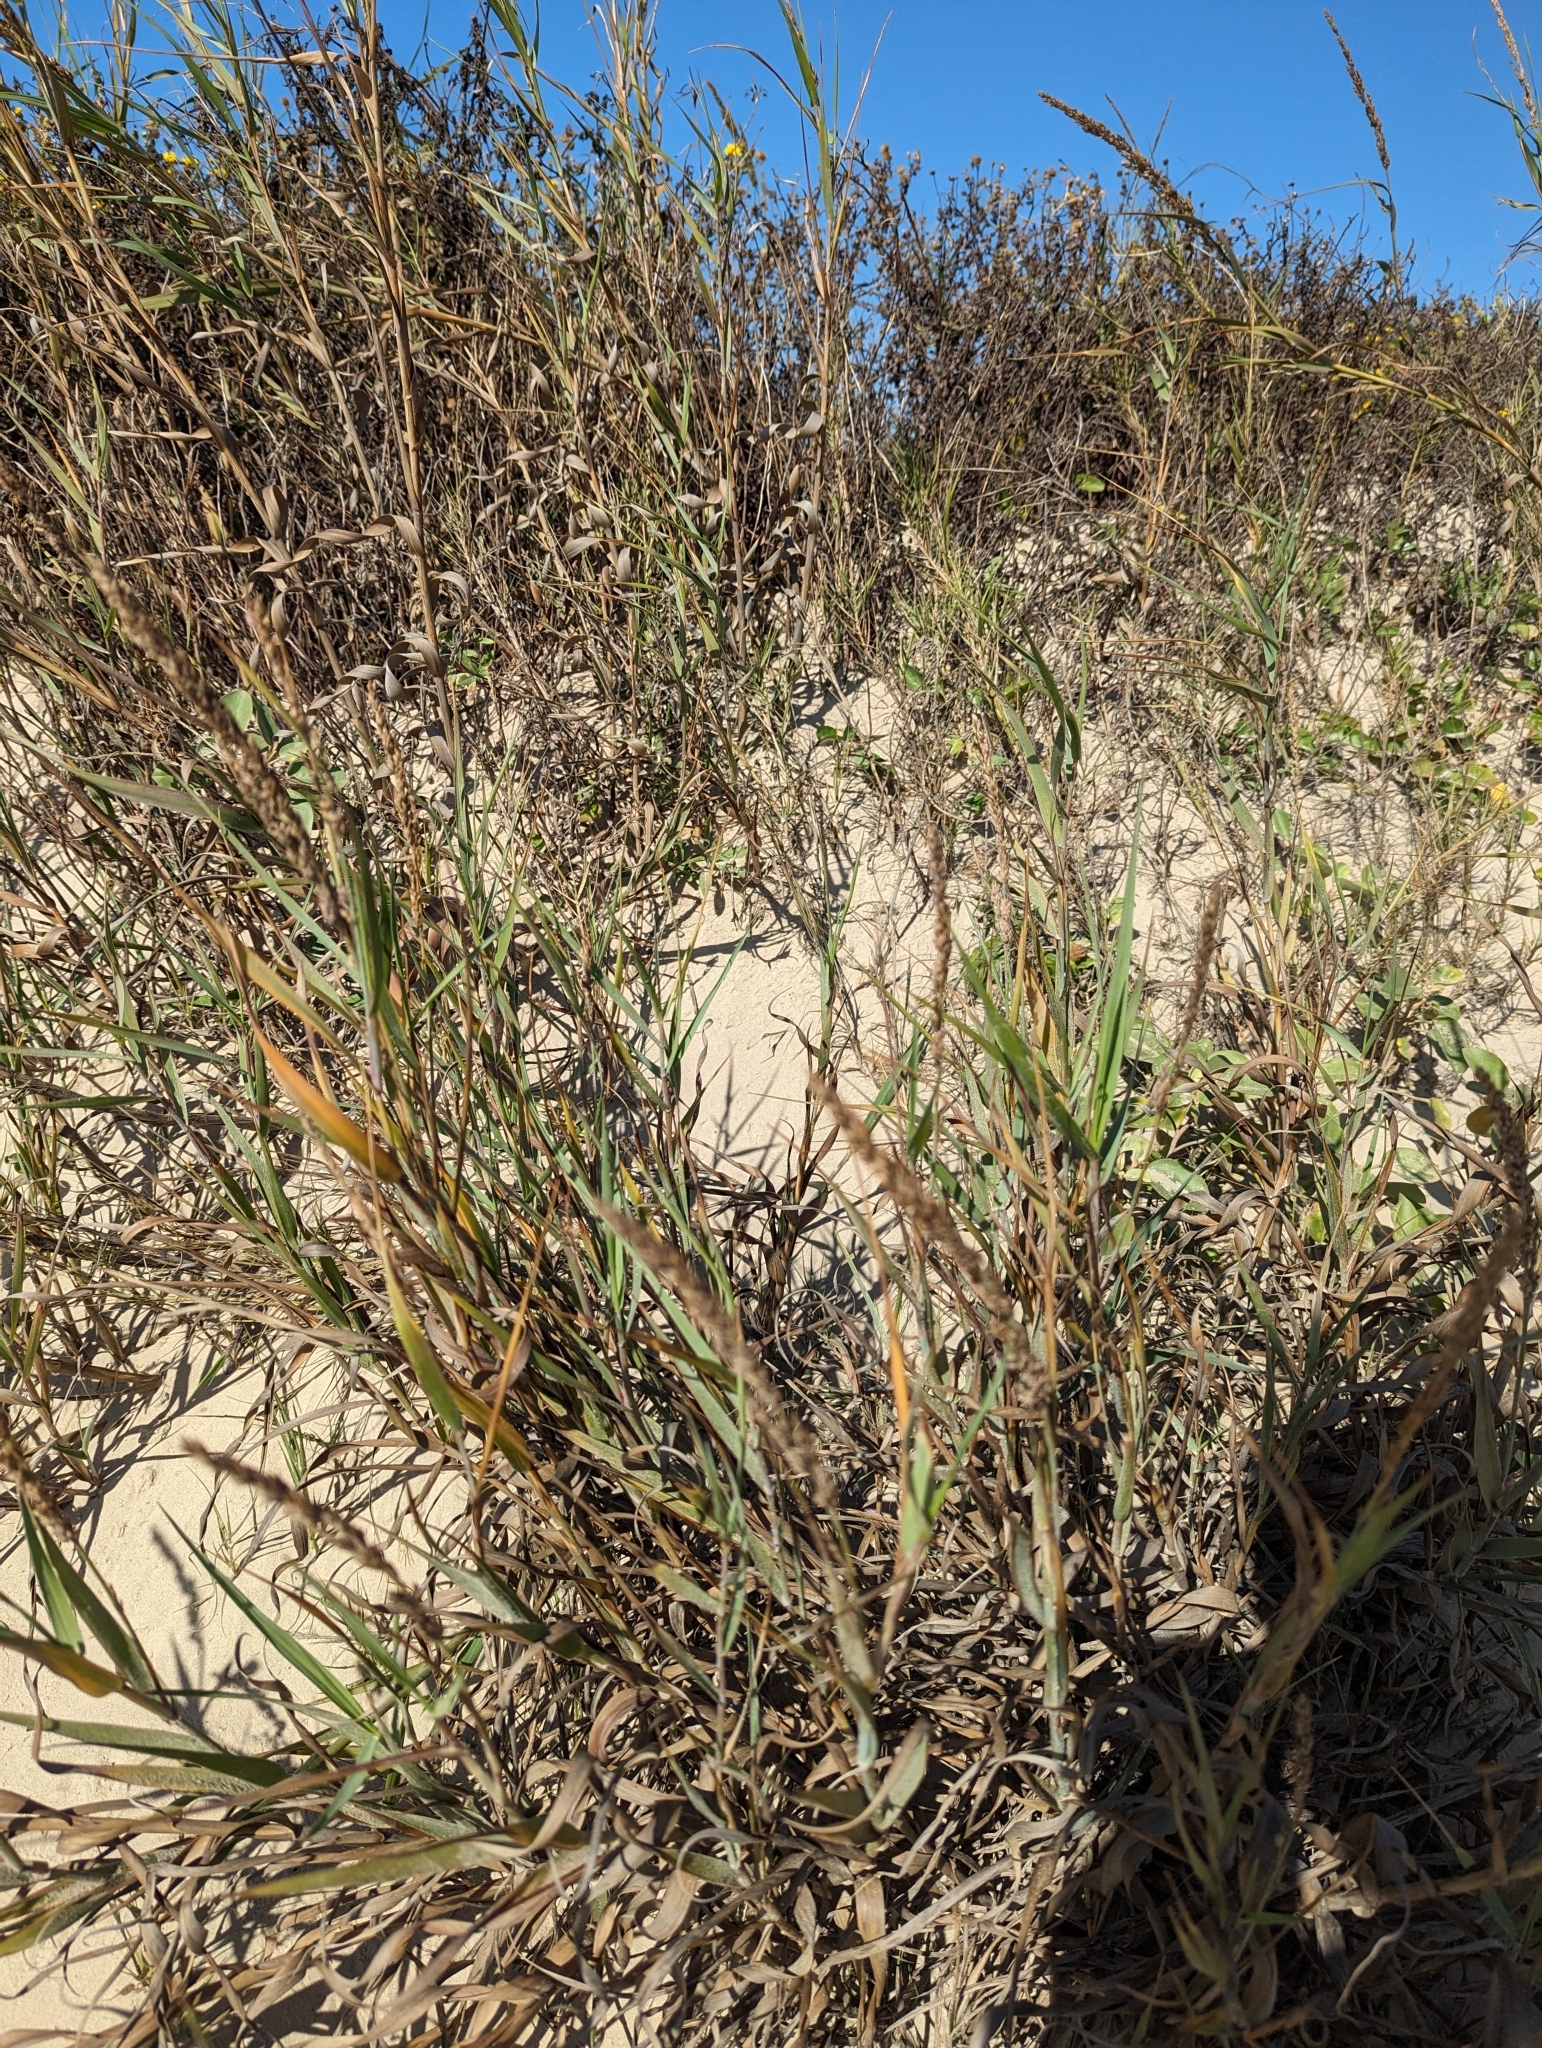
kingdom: Plantae
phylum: Tracheophyta
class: Liliopsida
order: Poales
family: Poaceae
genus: Panicum
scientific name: Panicum amarum
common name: Bitter panicum
